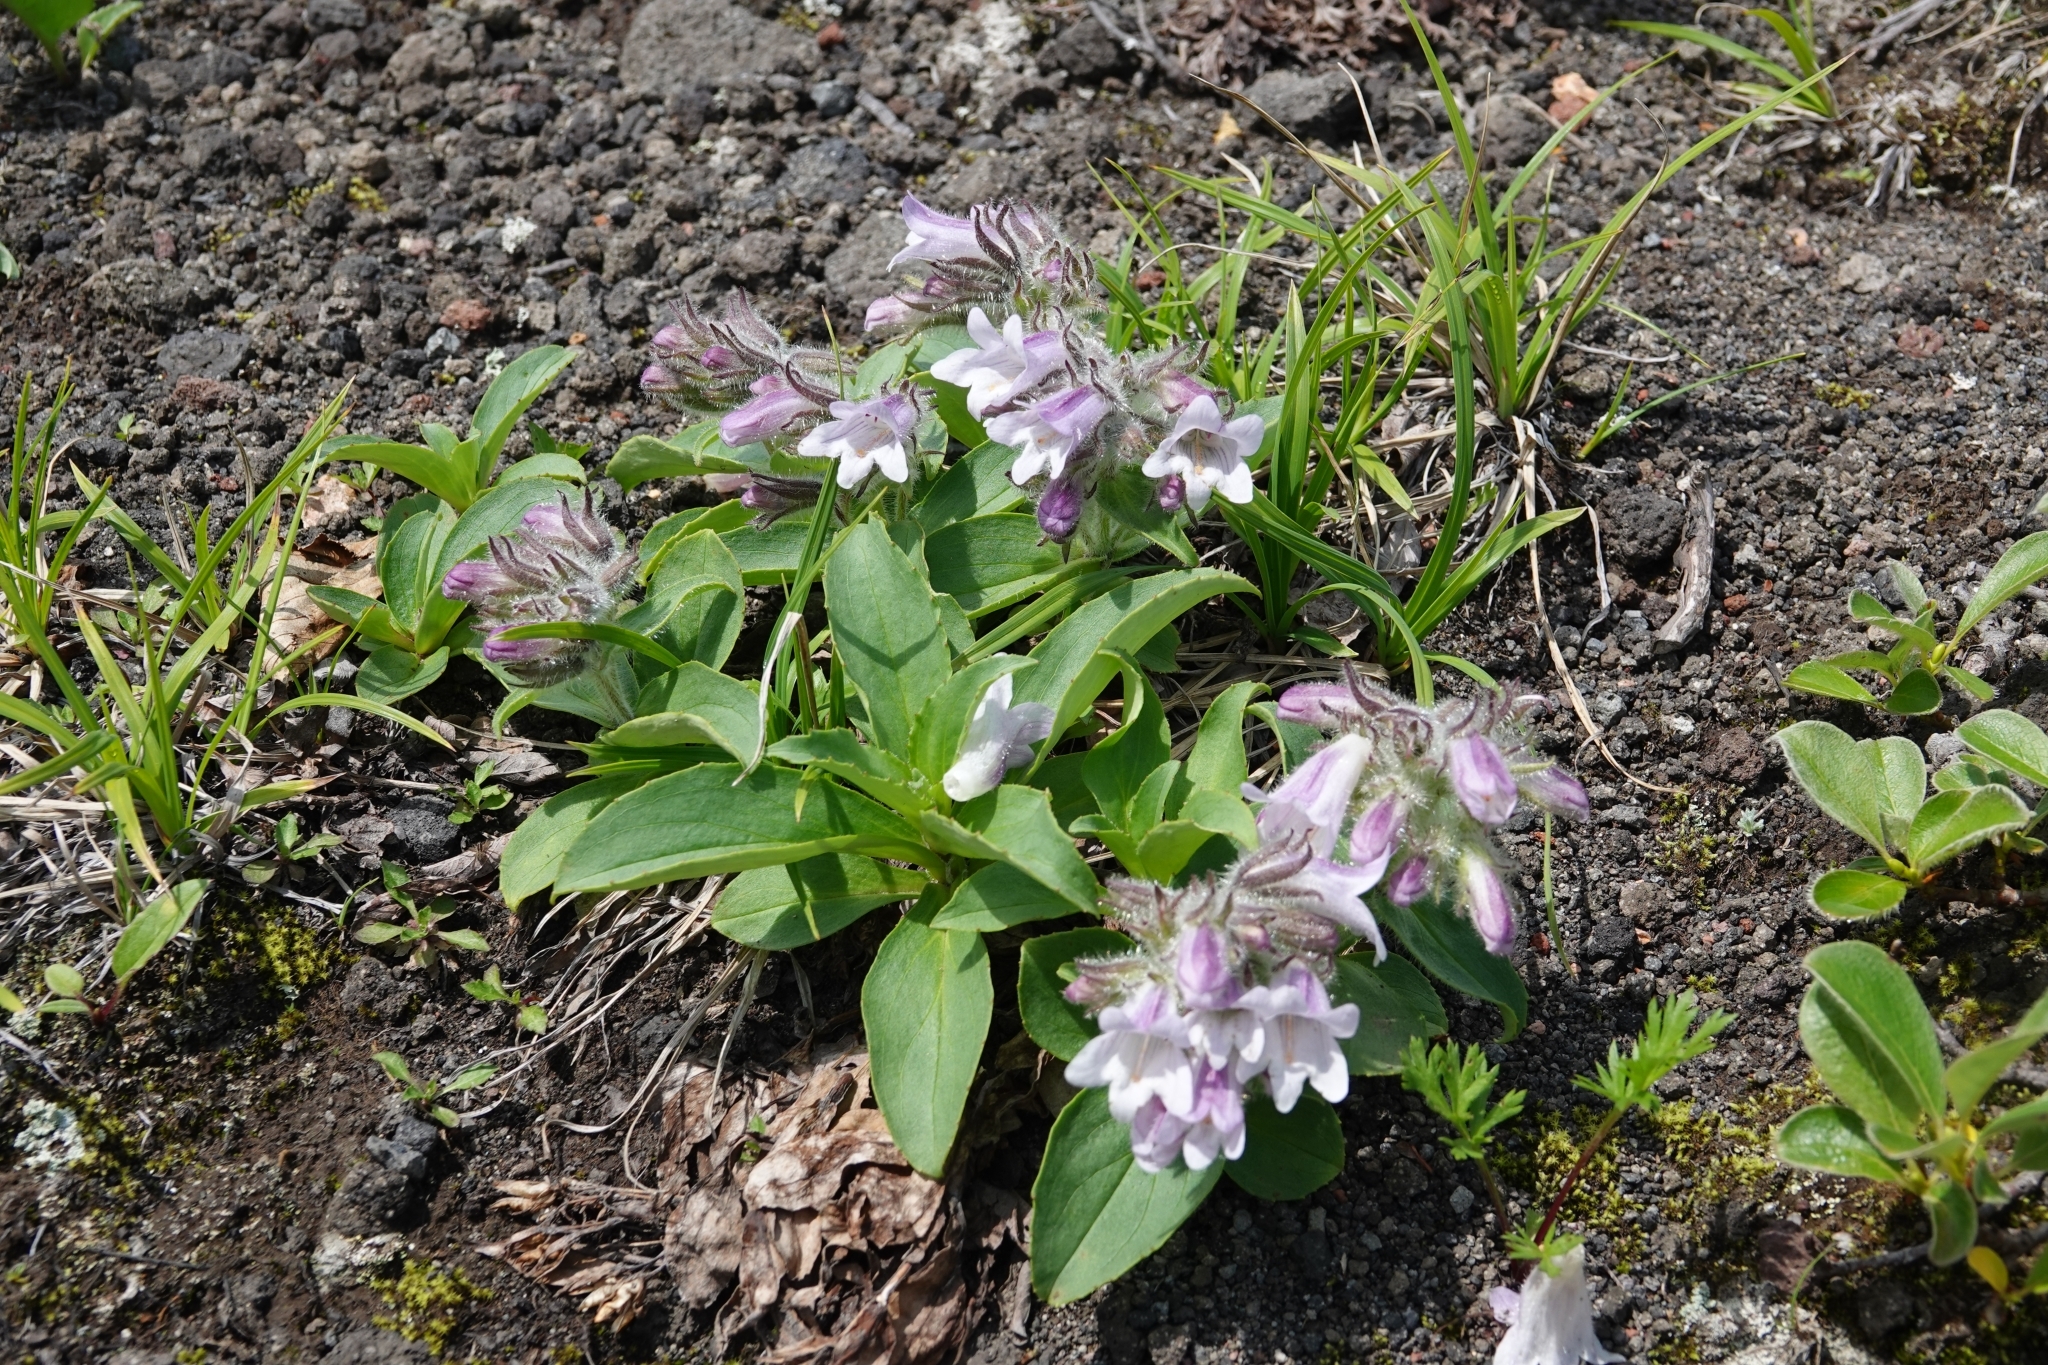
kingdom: Plantae
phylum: Tracheophyta
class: Magnoliopsida
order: Lamiales
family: Plantaginaceae
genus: Pennellianthus
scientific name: Pennellianthus frutescens
